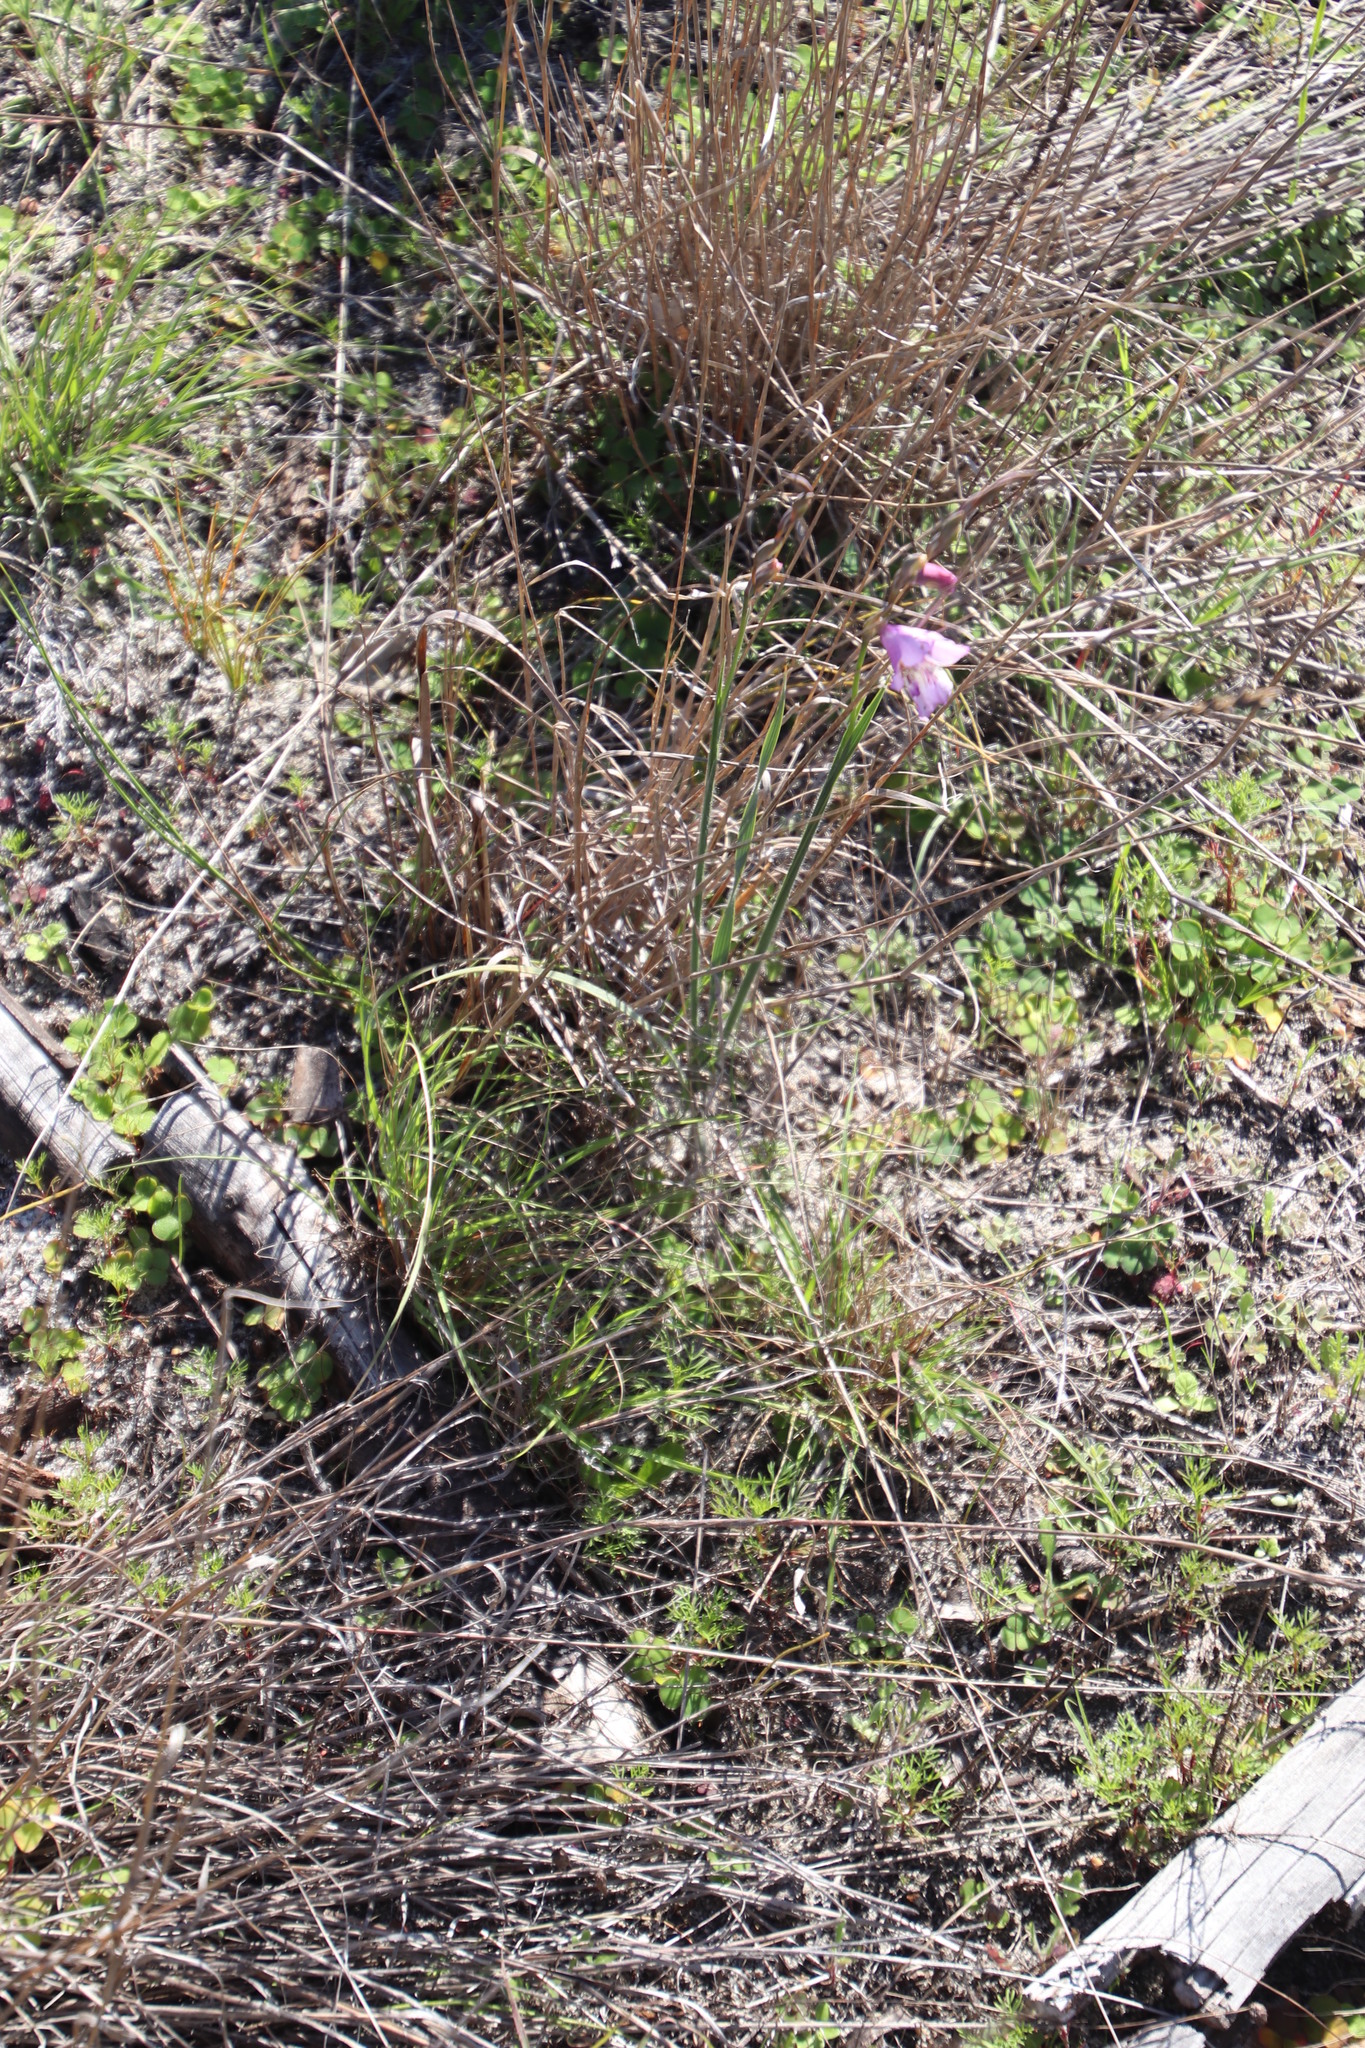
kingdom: Plantae
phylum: Tracheophyta
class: Liliopsida
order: Asparagales
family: Iridaceae
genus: Gladiolus
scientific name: Gladiolus hirsutus
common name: Small pink afrikaner
